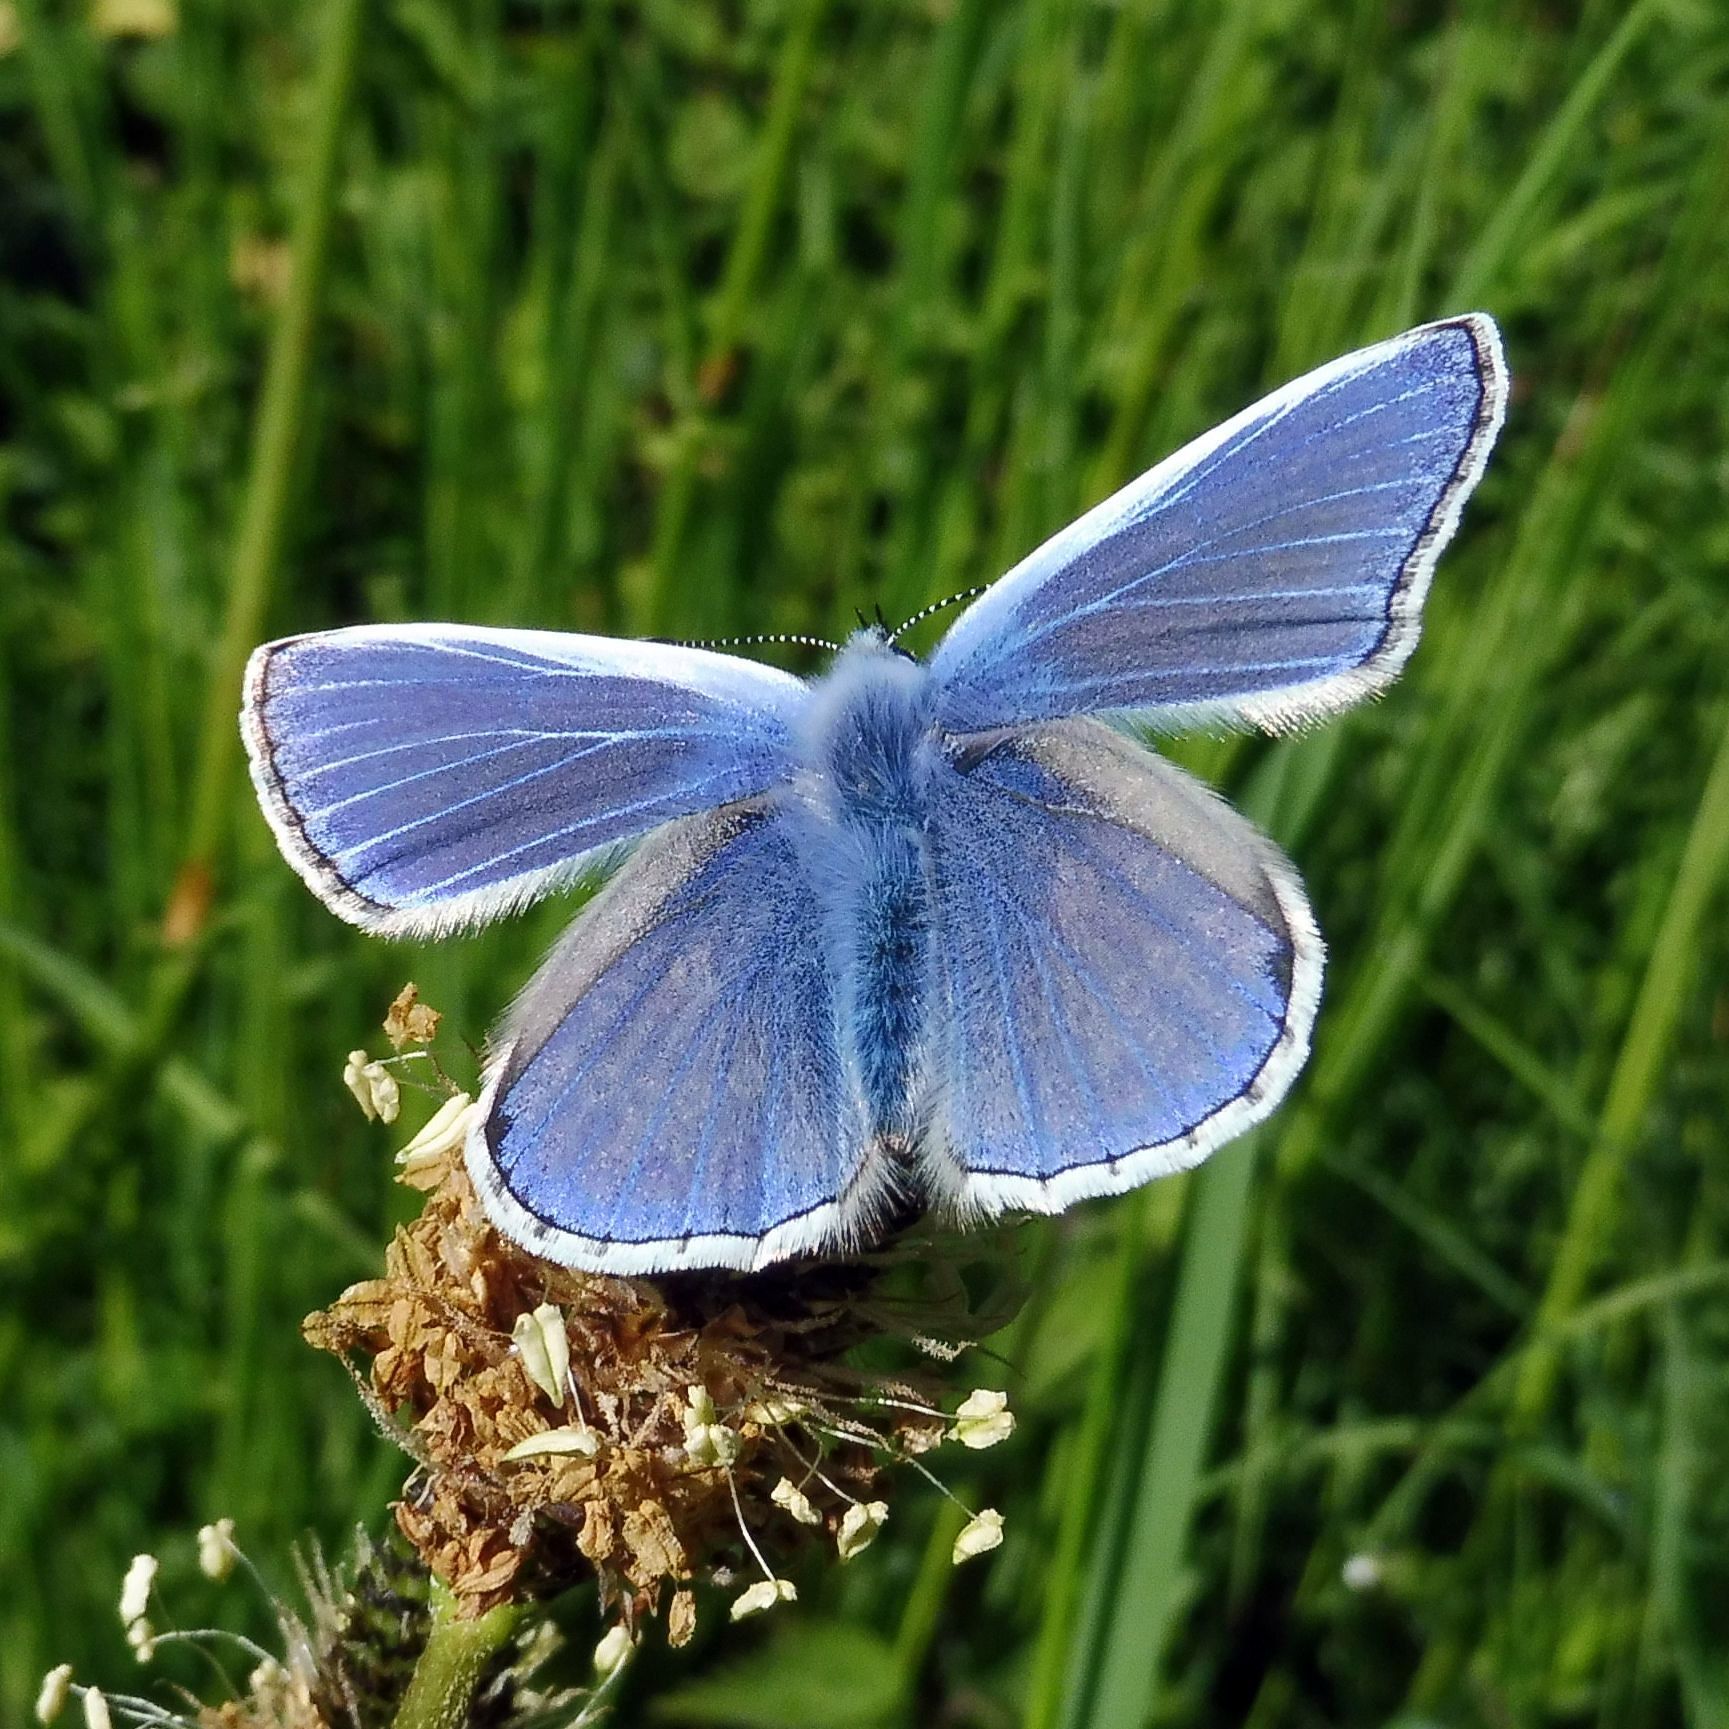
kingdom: Animalia
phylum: Arthropoda
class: Insecta
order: Lepidoptera
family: Lycaenidae
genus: Polyommatus
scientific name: Polyommatus icarus
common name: Common blue
